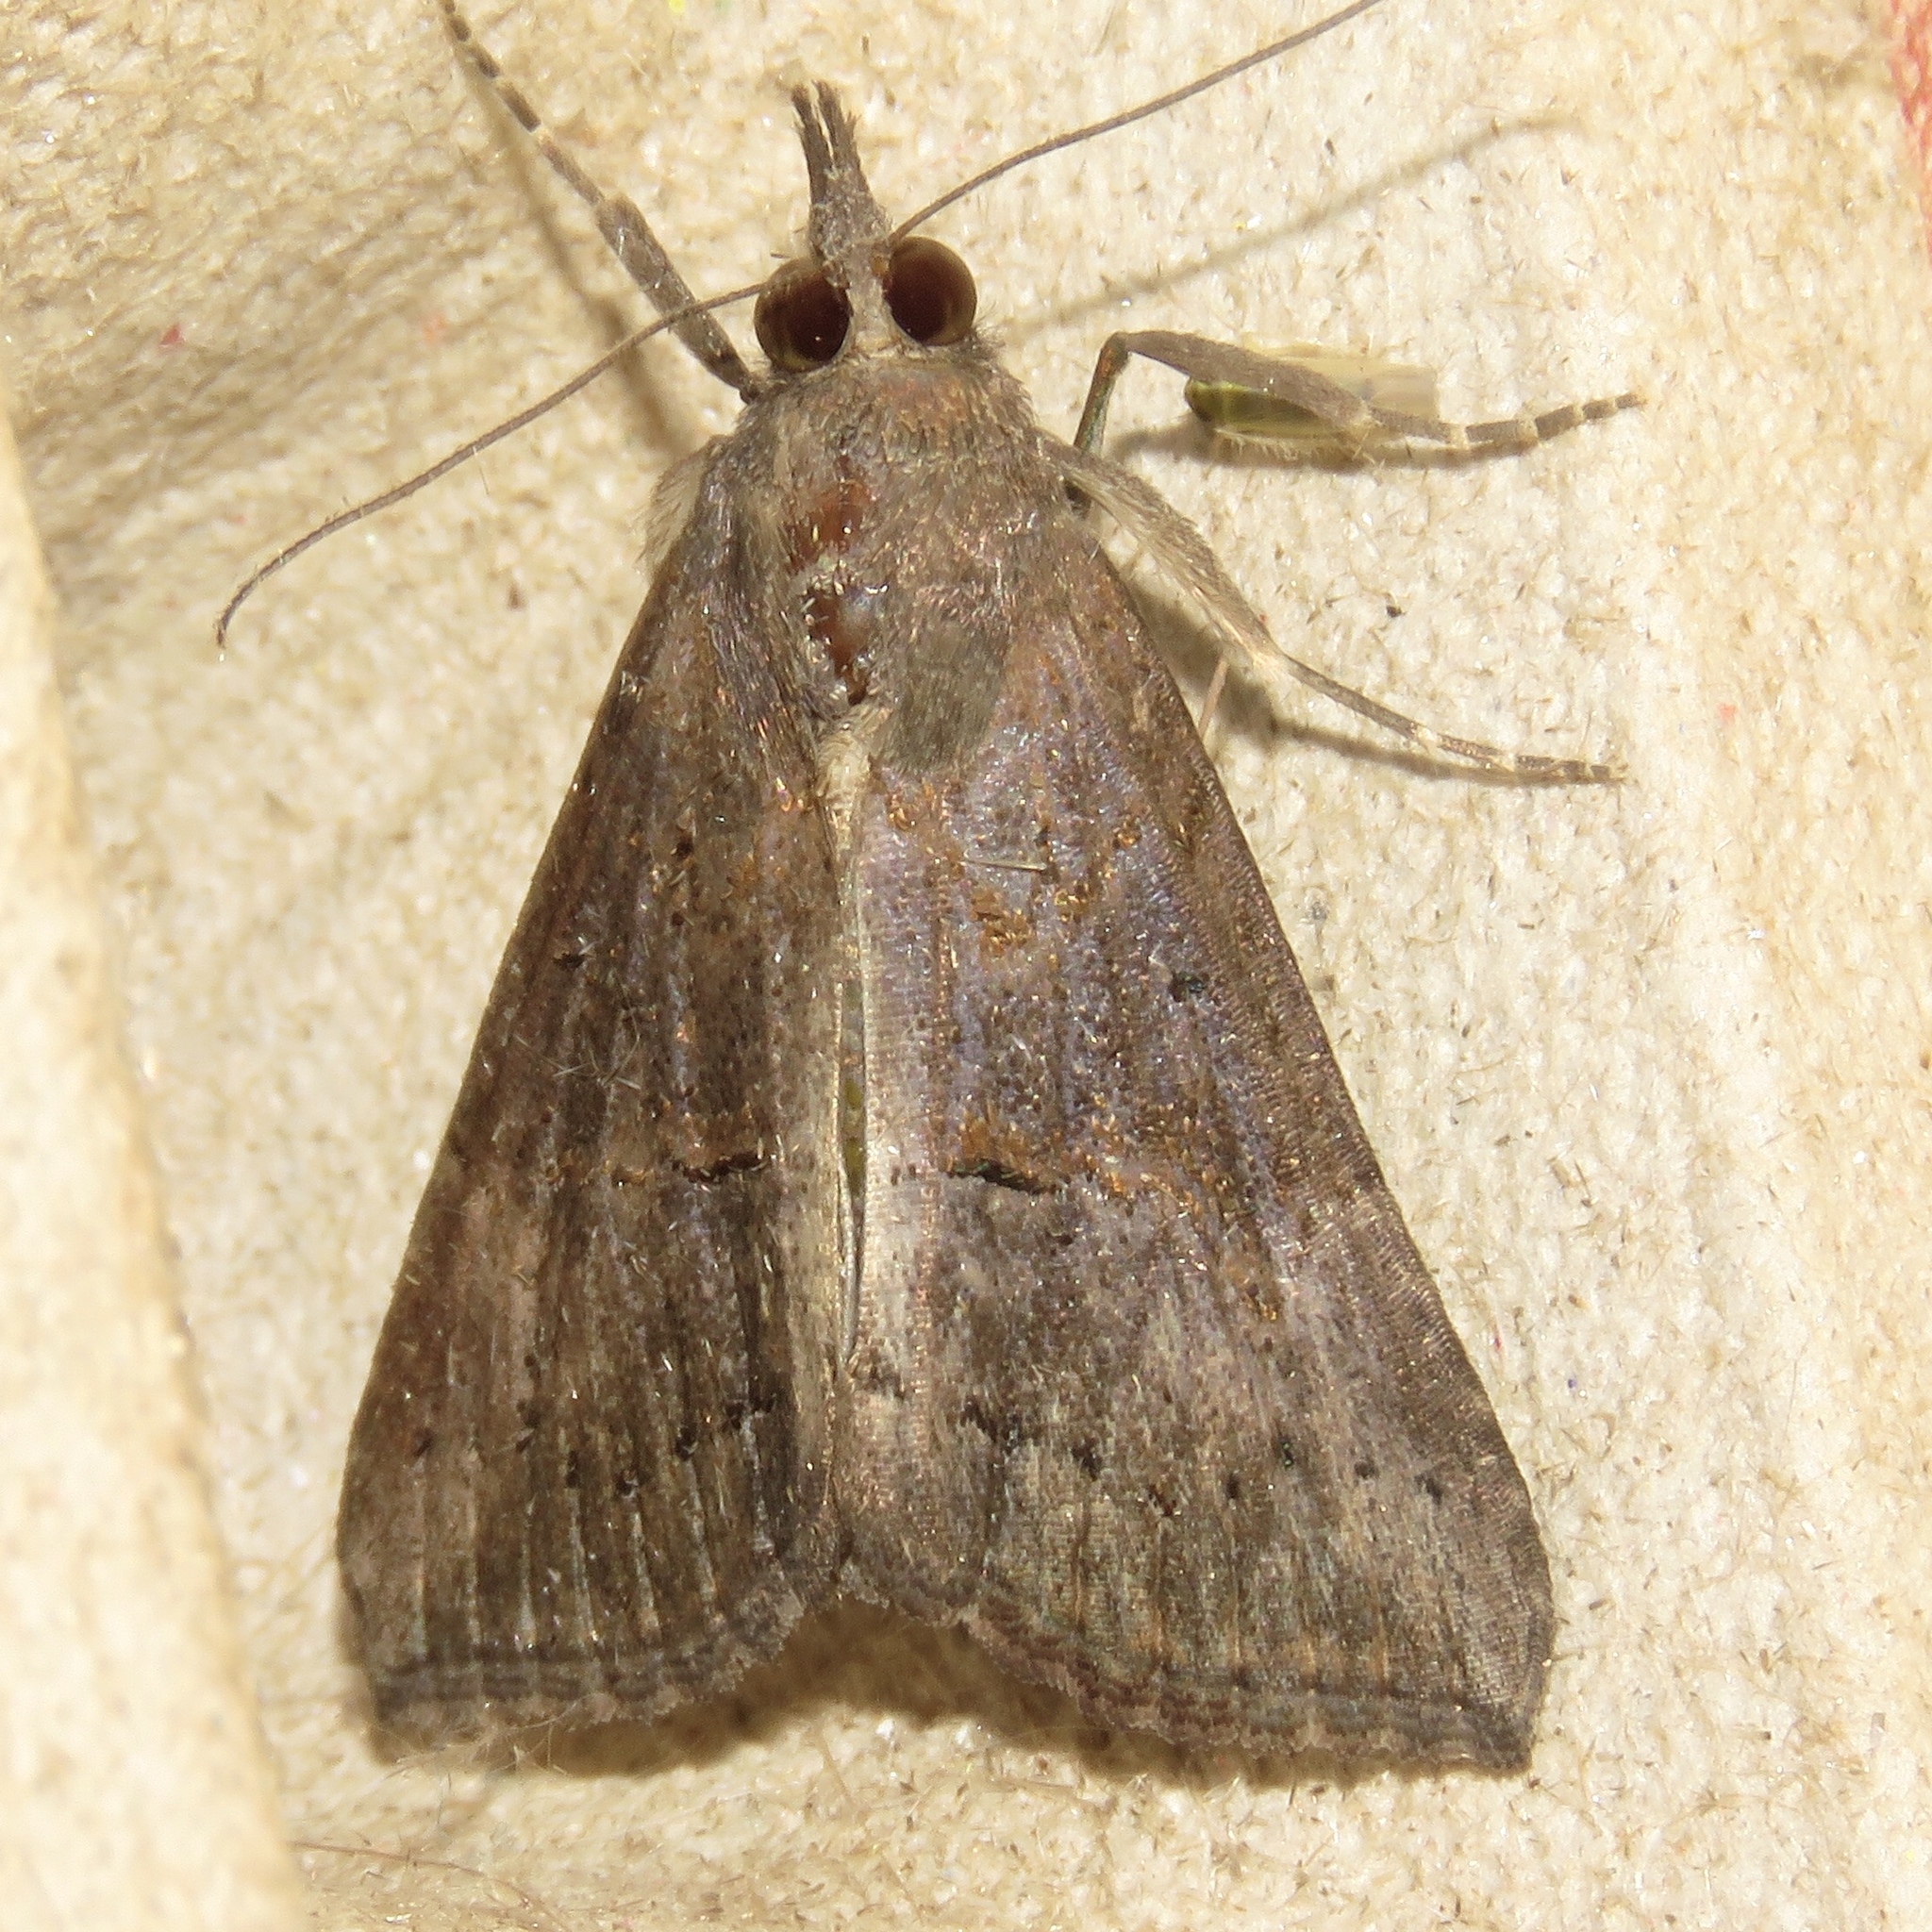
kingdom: Animalia
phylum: Arthropoda
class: Insecta
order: Lepidoptera
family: Erebidae
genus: Hypena
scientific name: Hypena scabra
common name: Green cloverworm
